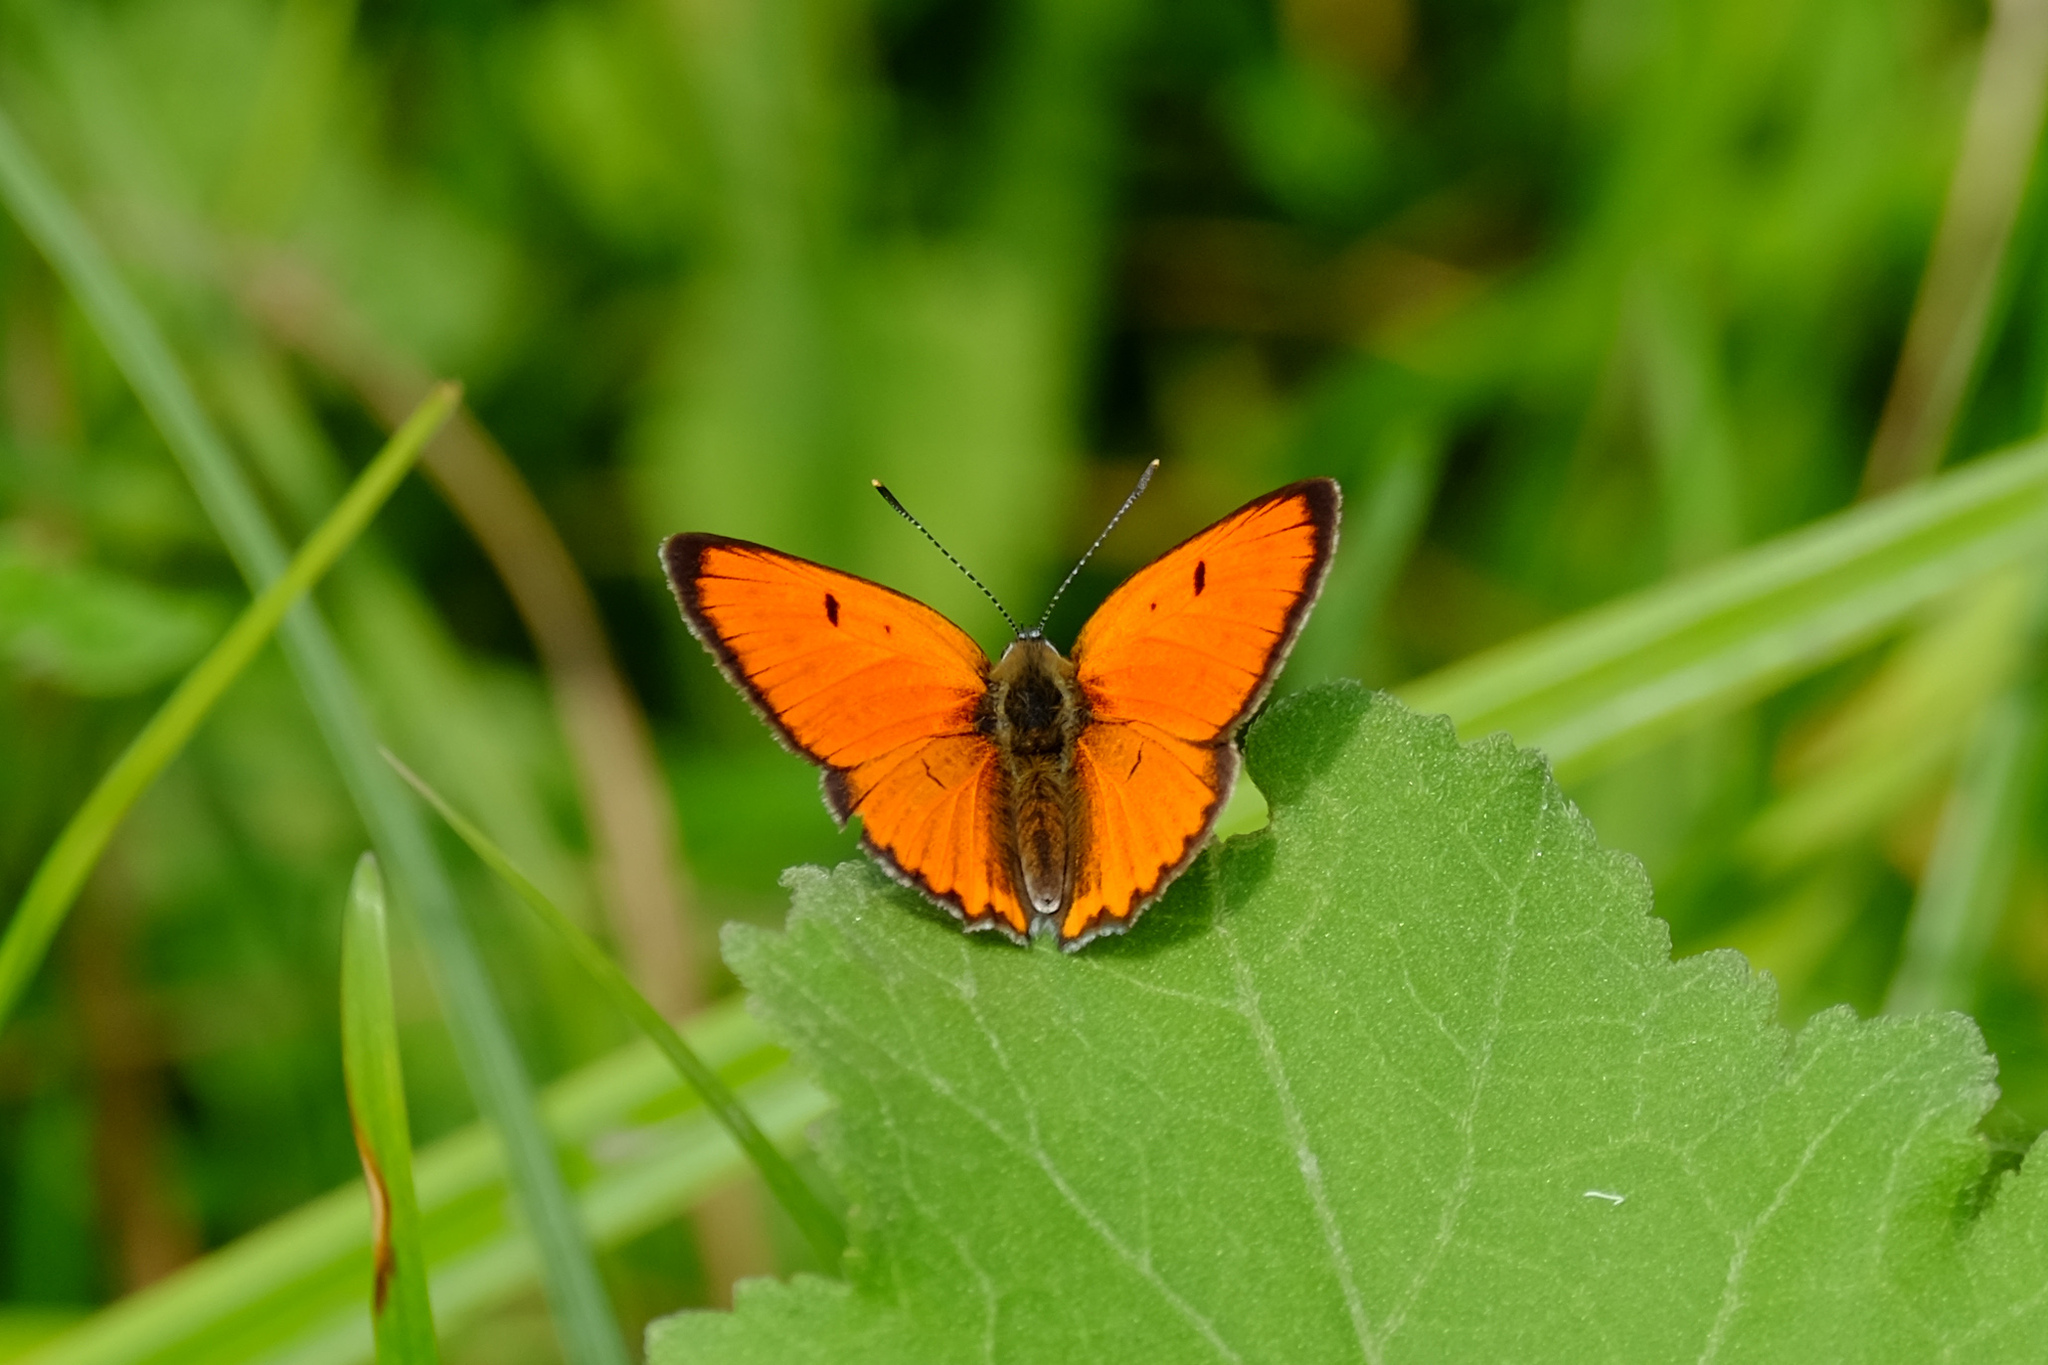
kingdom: Animalia
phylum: Arthropoda
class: Insecta
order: Lepidoptera
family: Lycaenidae
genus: Lycaena
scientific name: Lycaena dispar
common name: Large copper
